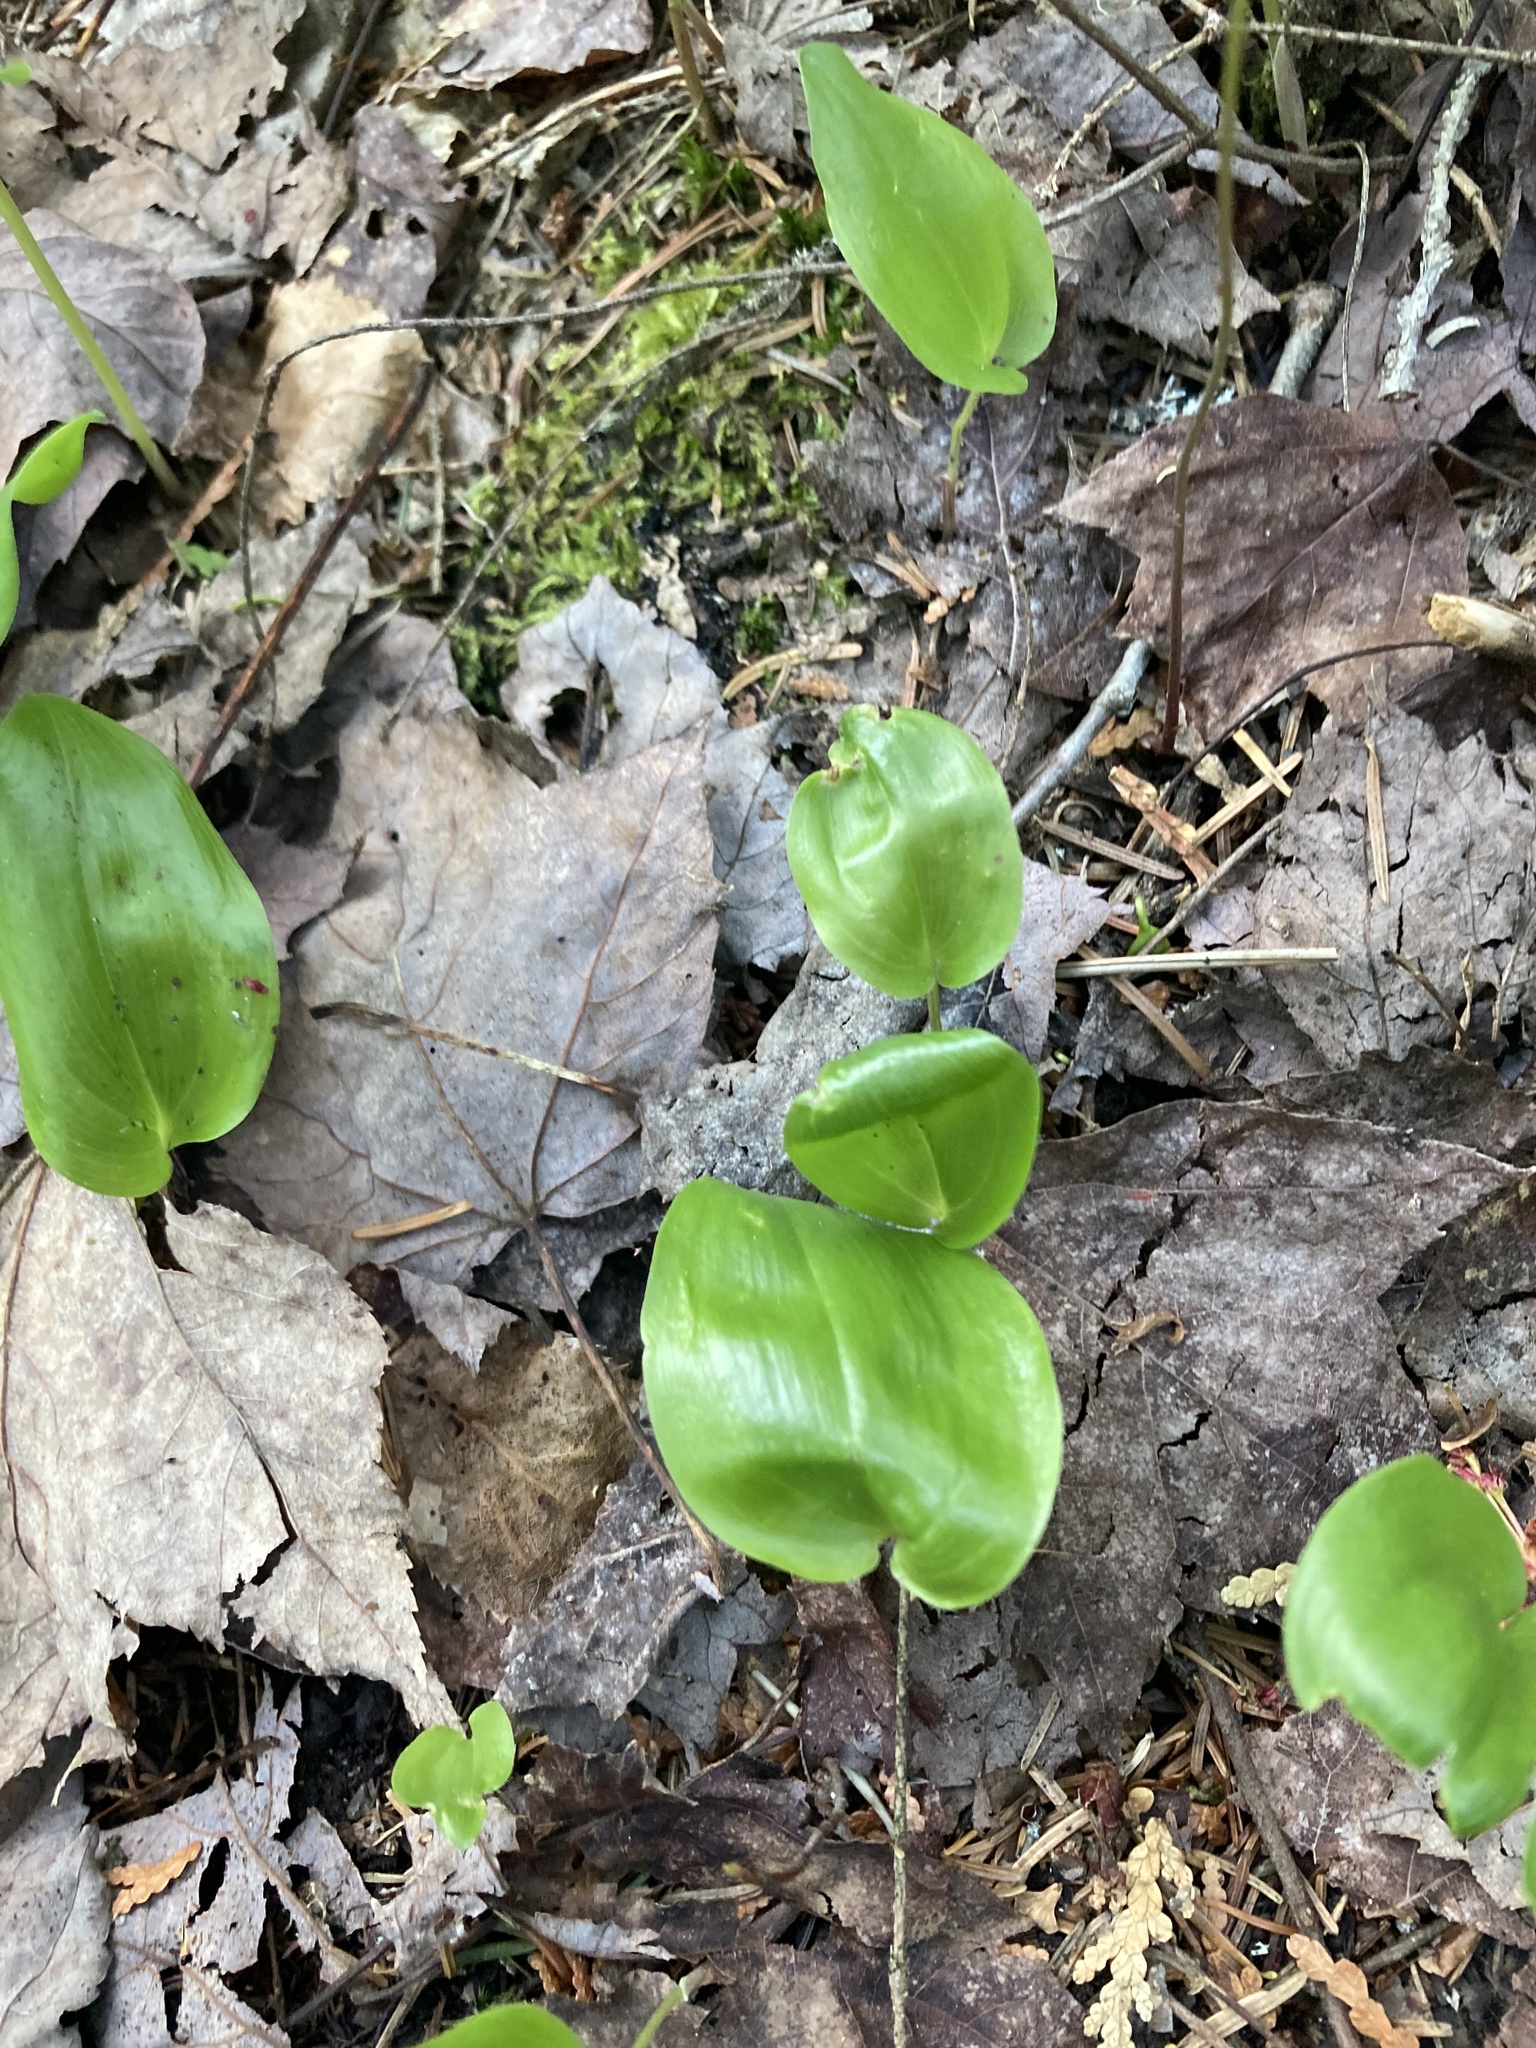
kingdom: Plantae
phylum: Tracheophyta
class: Liliopsida
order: Asparagales
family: Asparagaceae
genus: Maianthemum
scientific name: Maianthemum canadense
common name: False lily-of-the-valley
